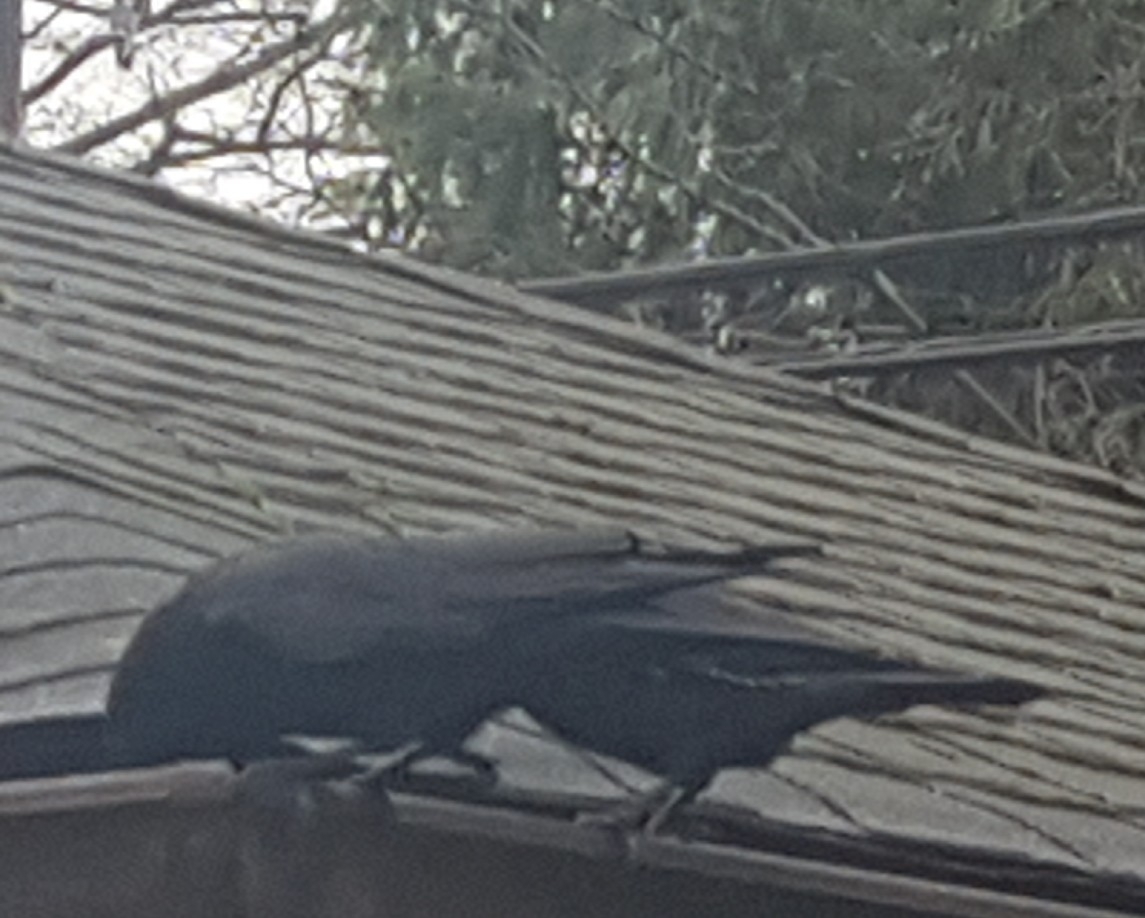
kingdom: Animalia
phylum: Chordata
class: Aves
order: Passeriformes
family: Corvidae
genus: Corvus
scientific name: Corvus brachyrhynchos
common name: American crow
